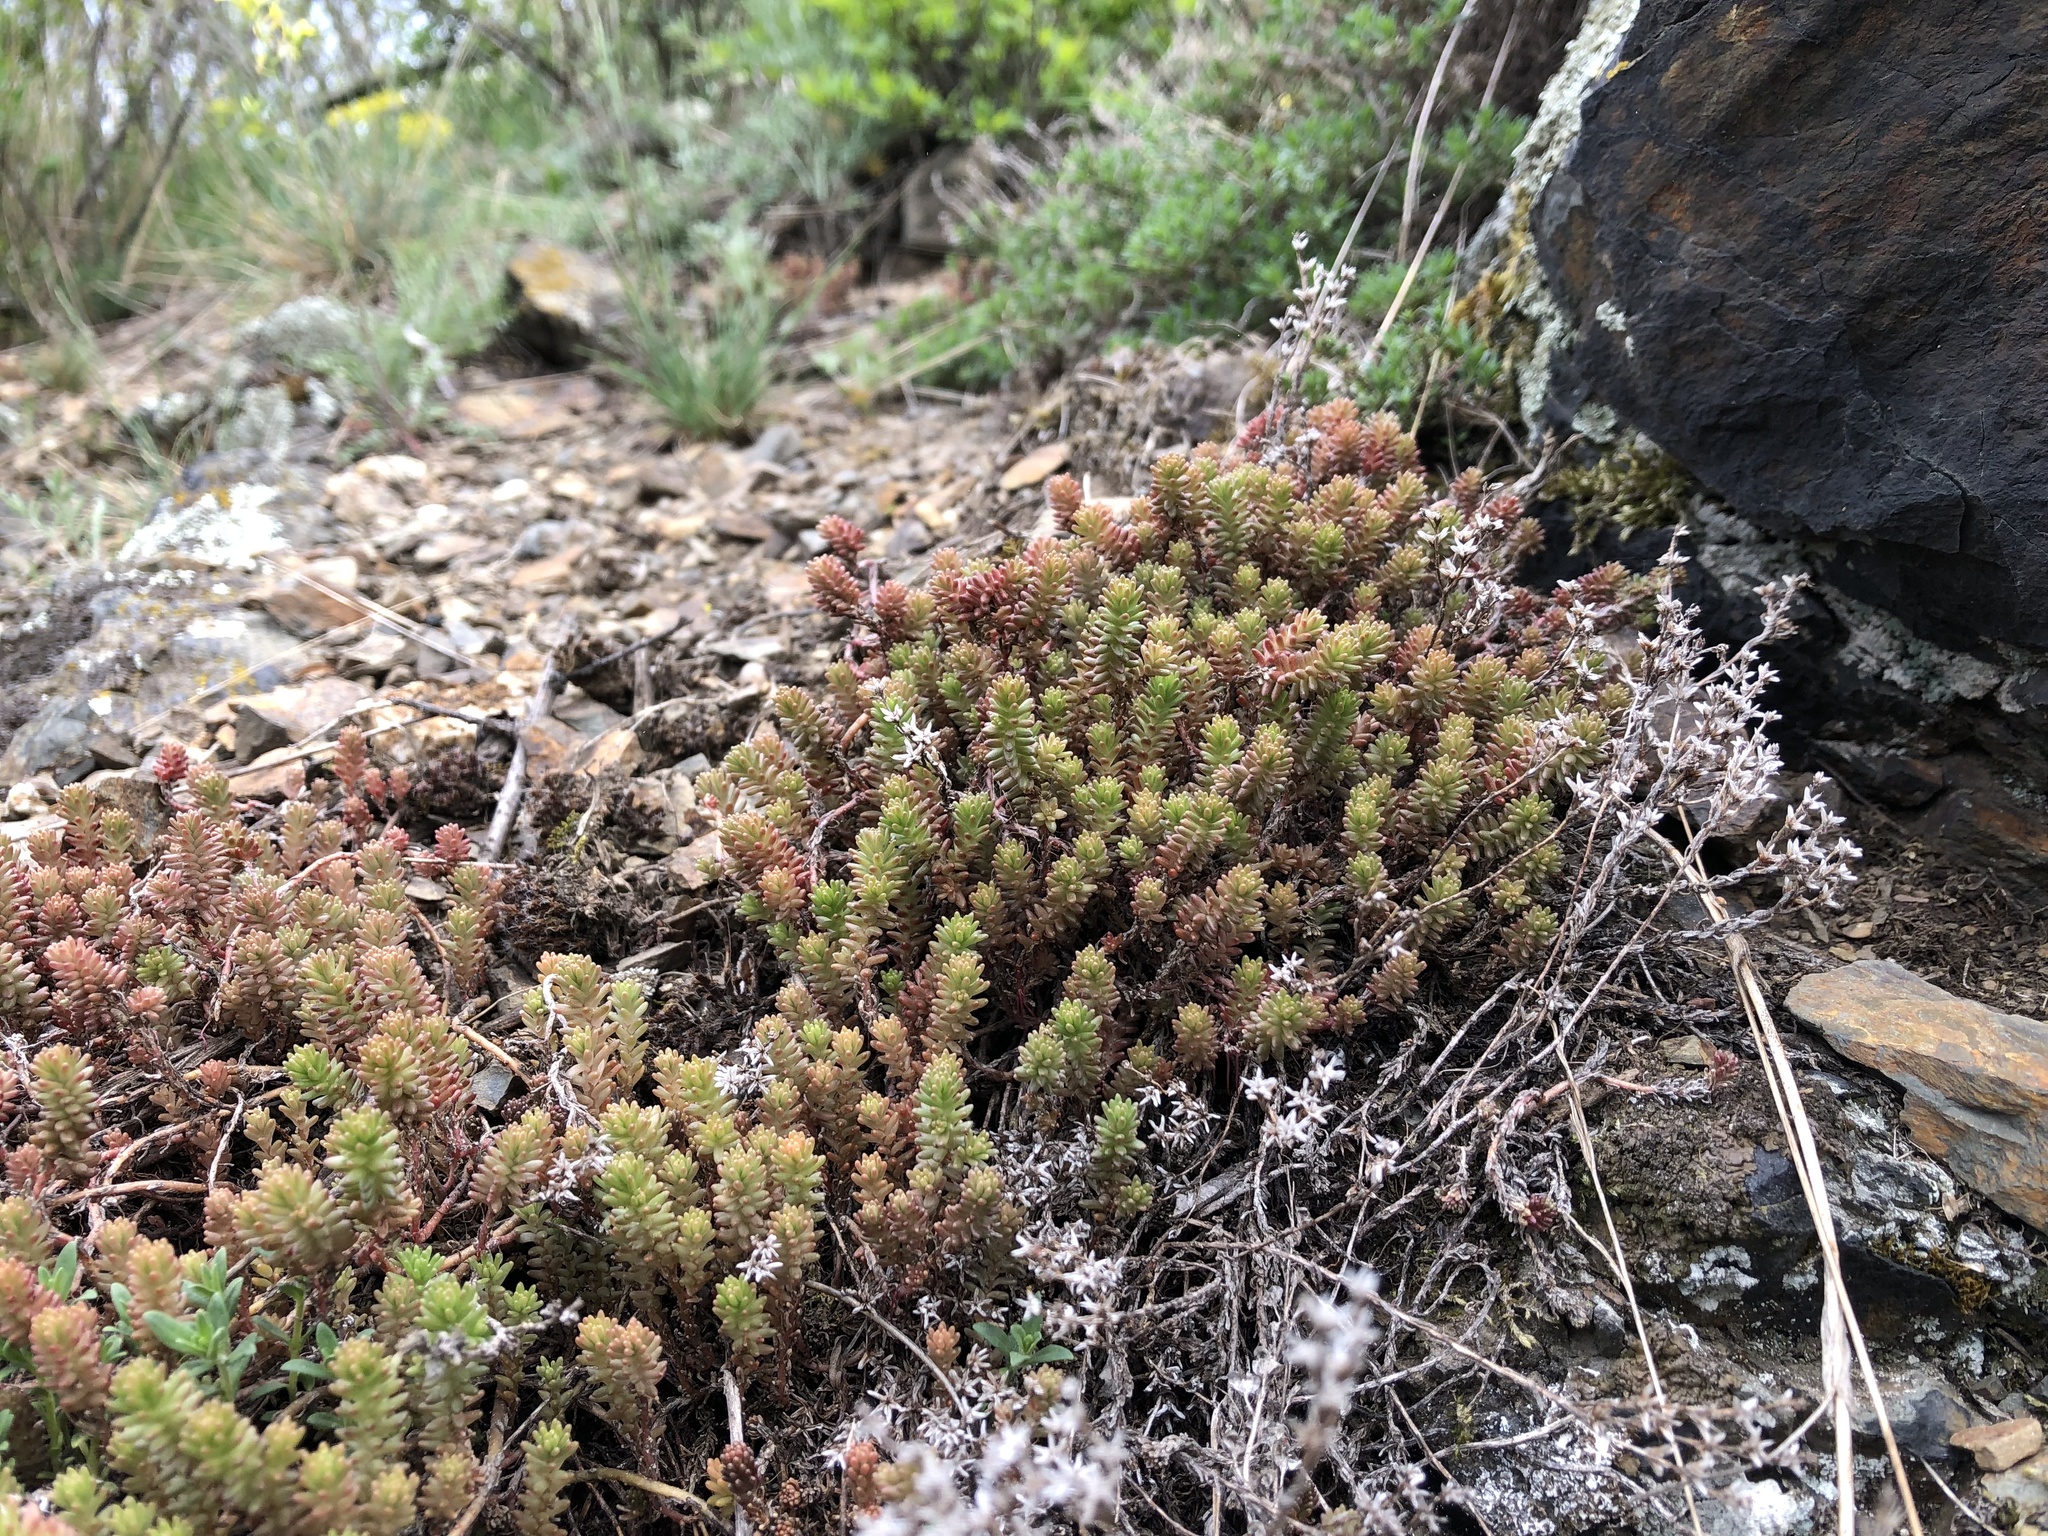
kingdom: Plantae
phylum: Tracheophyta
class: Magnoliopsida
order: Saxifragales
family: Crassulaceae
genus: Sedum
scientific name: Sedum sexangulare
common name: Tasteless stonecrop
